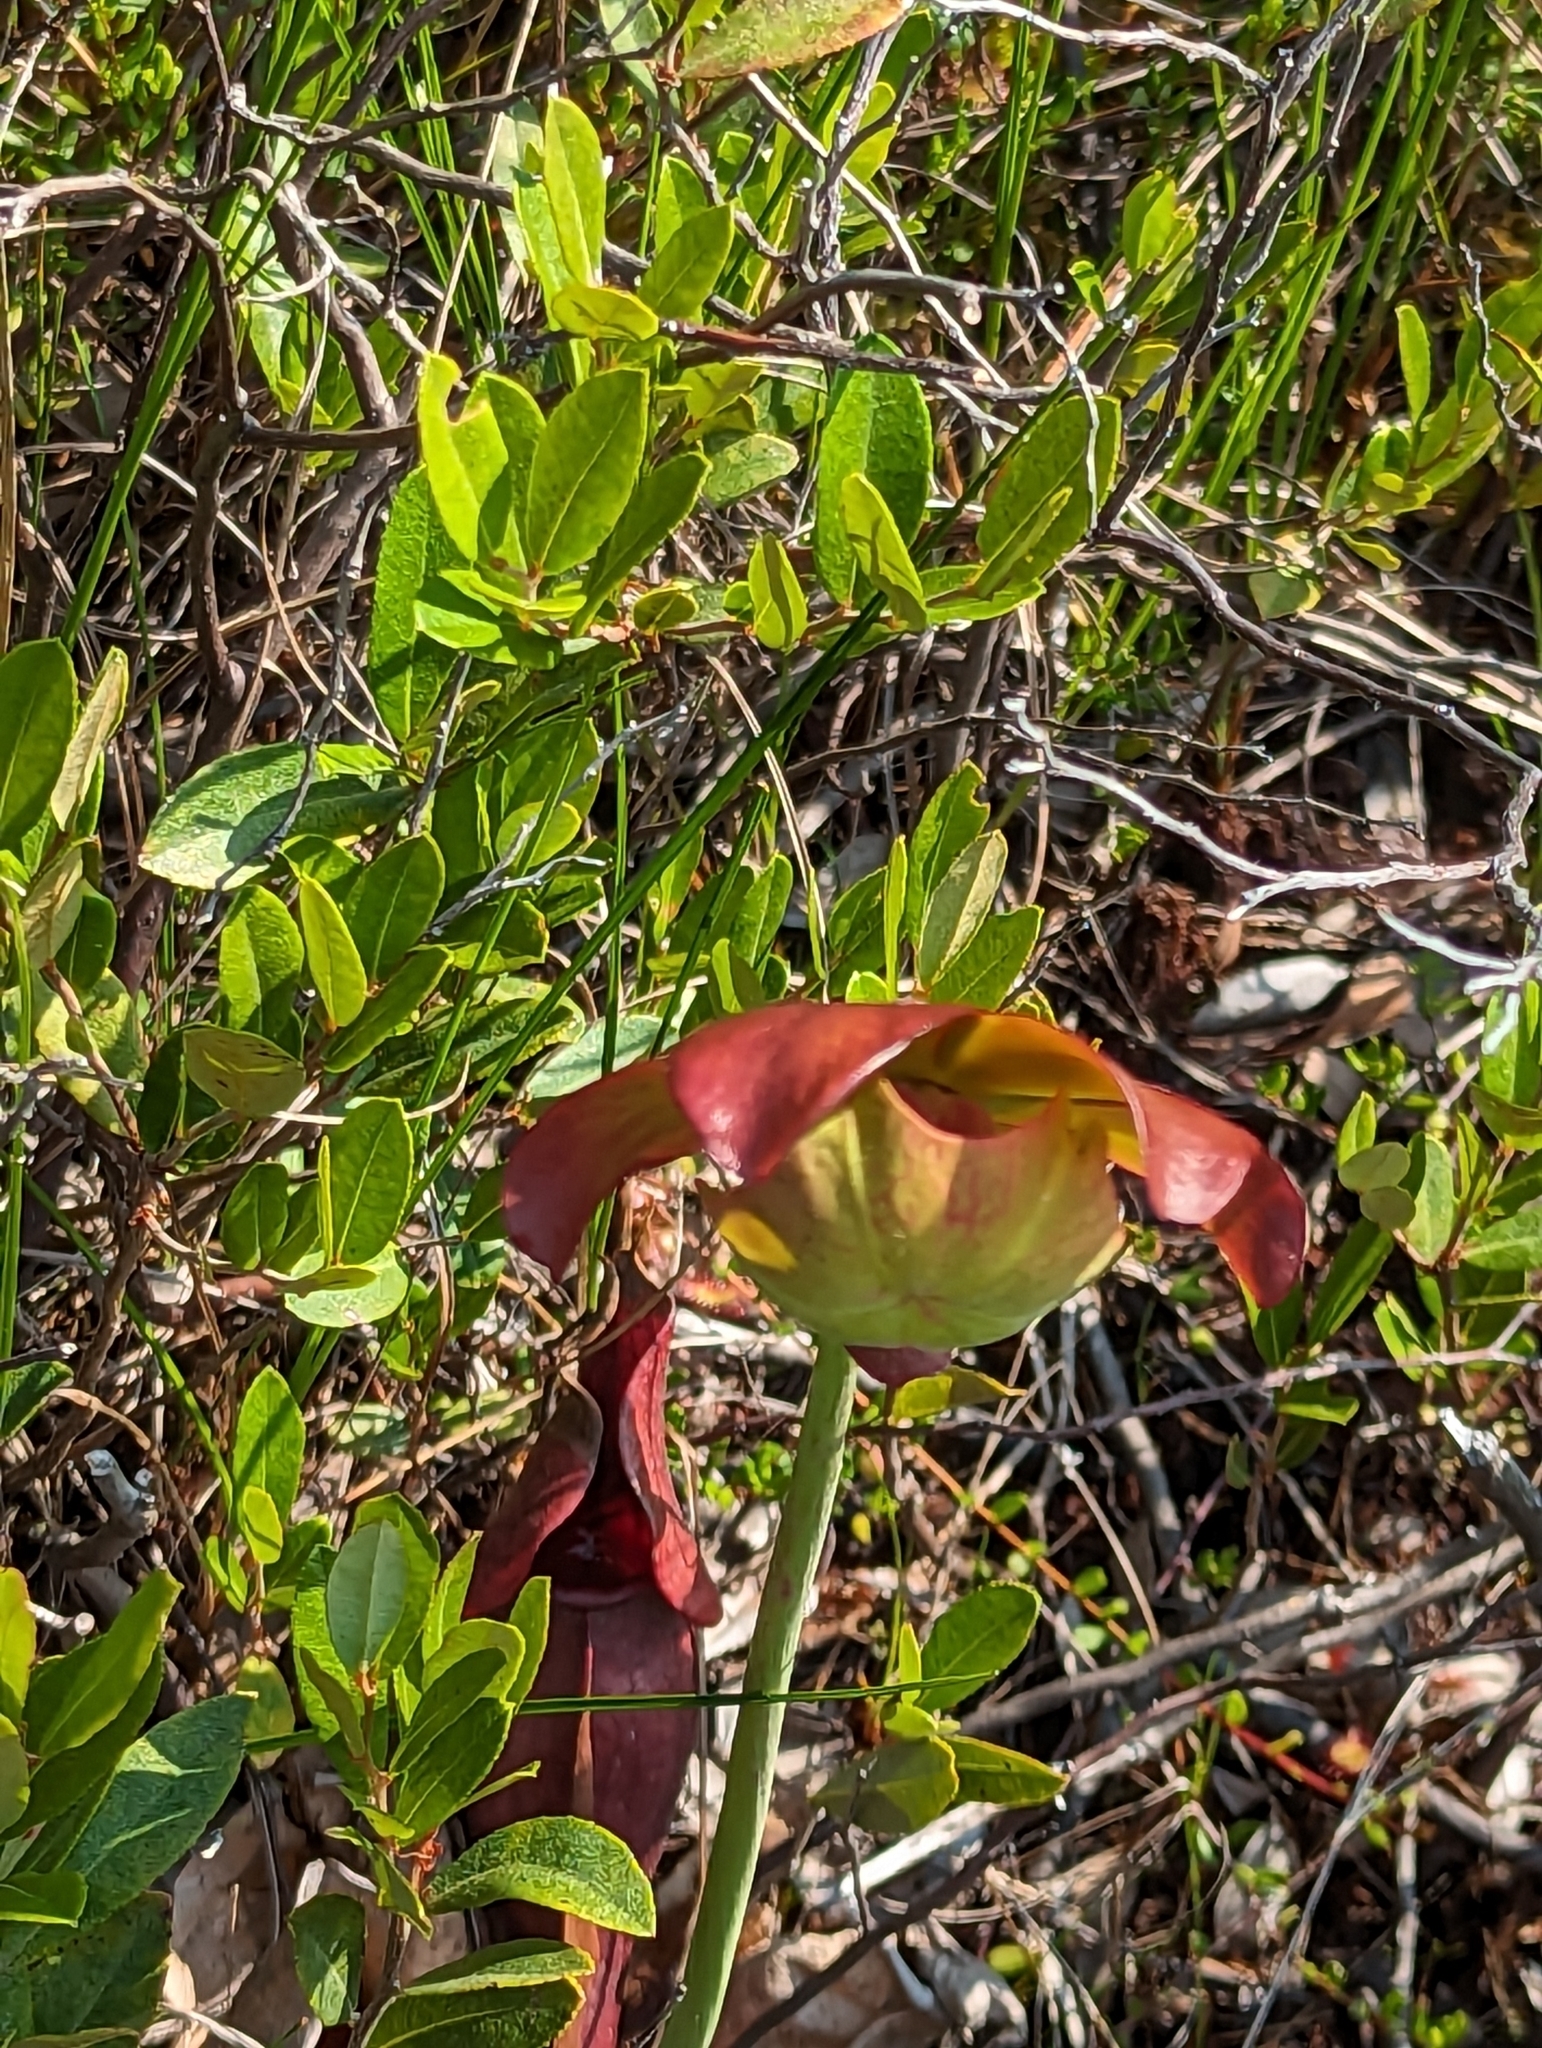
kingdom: Plantae
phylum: Tracheophyta
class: Magnoliopsida
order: Ericales
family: Sarraceniaceae
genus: Sarracenia
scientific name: Sarracenia purpurea
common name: Pitcherplant
